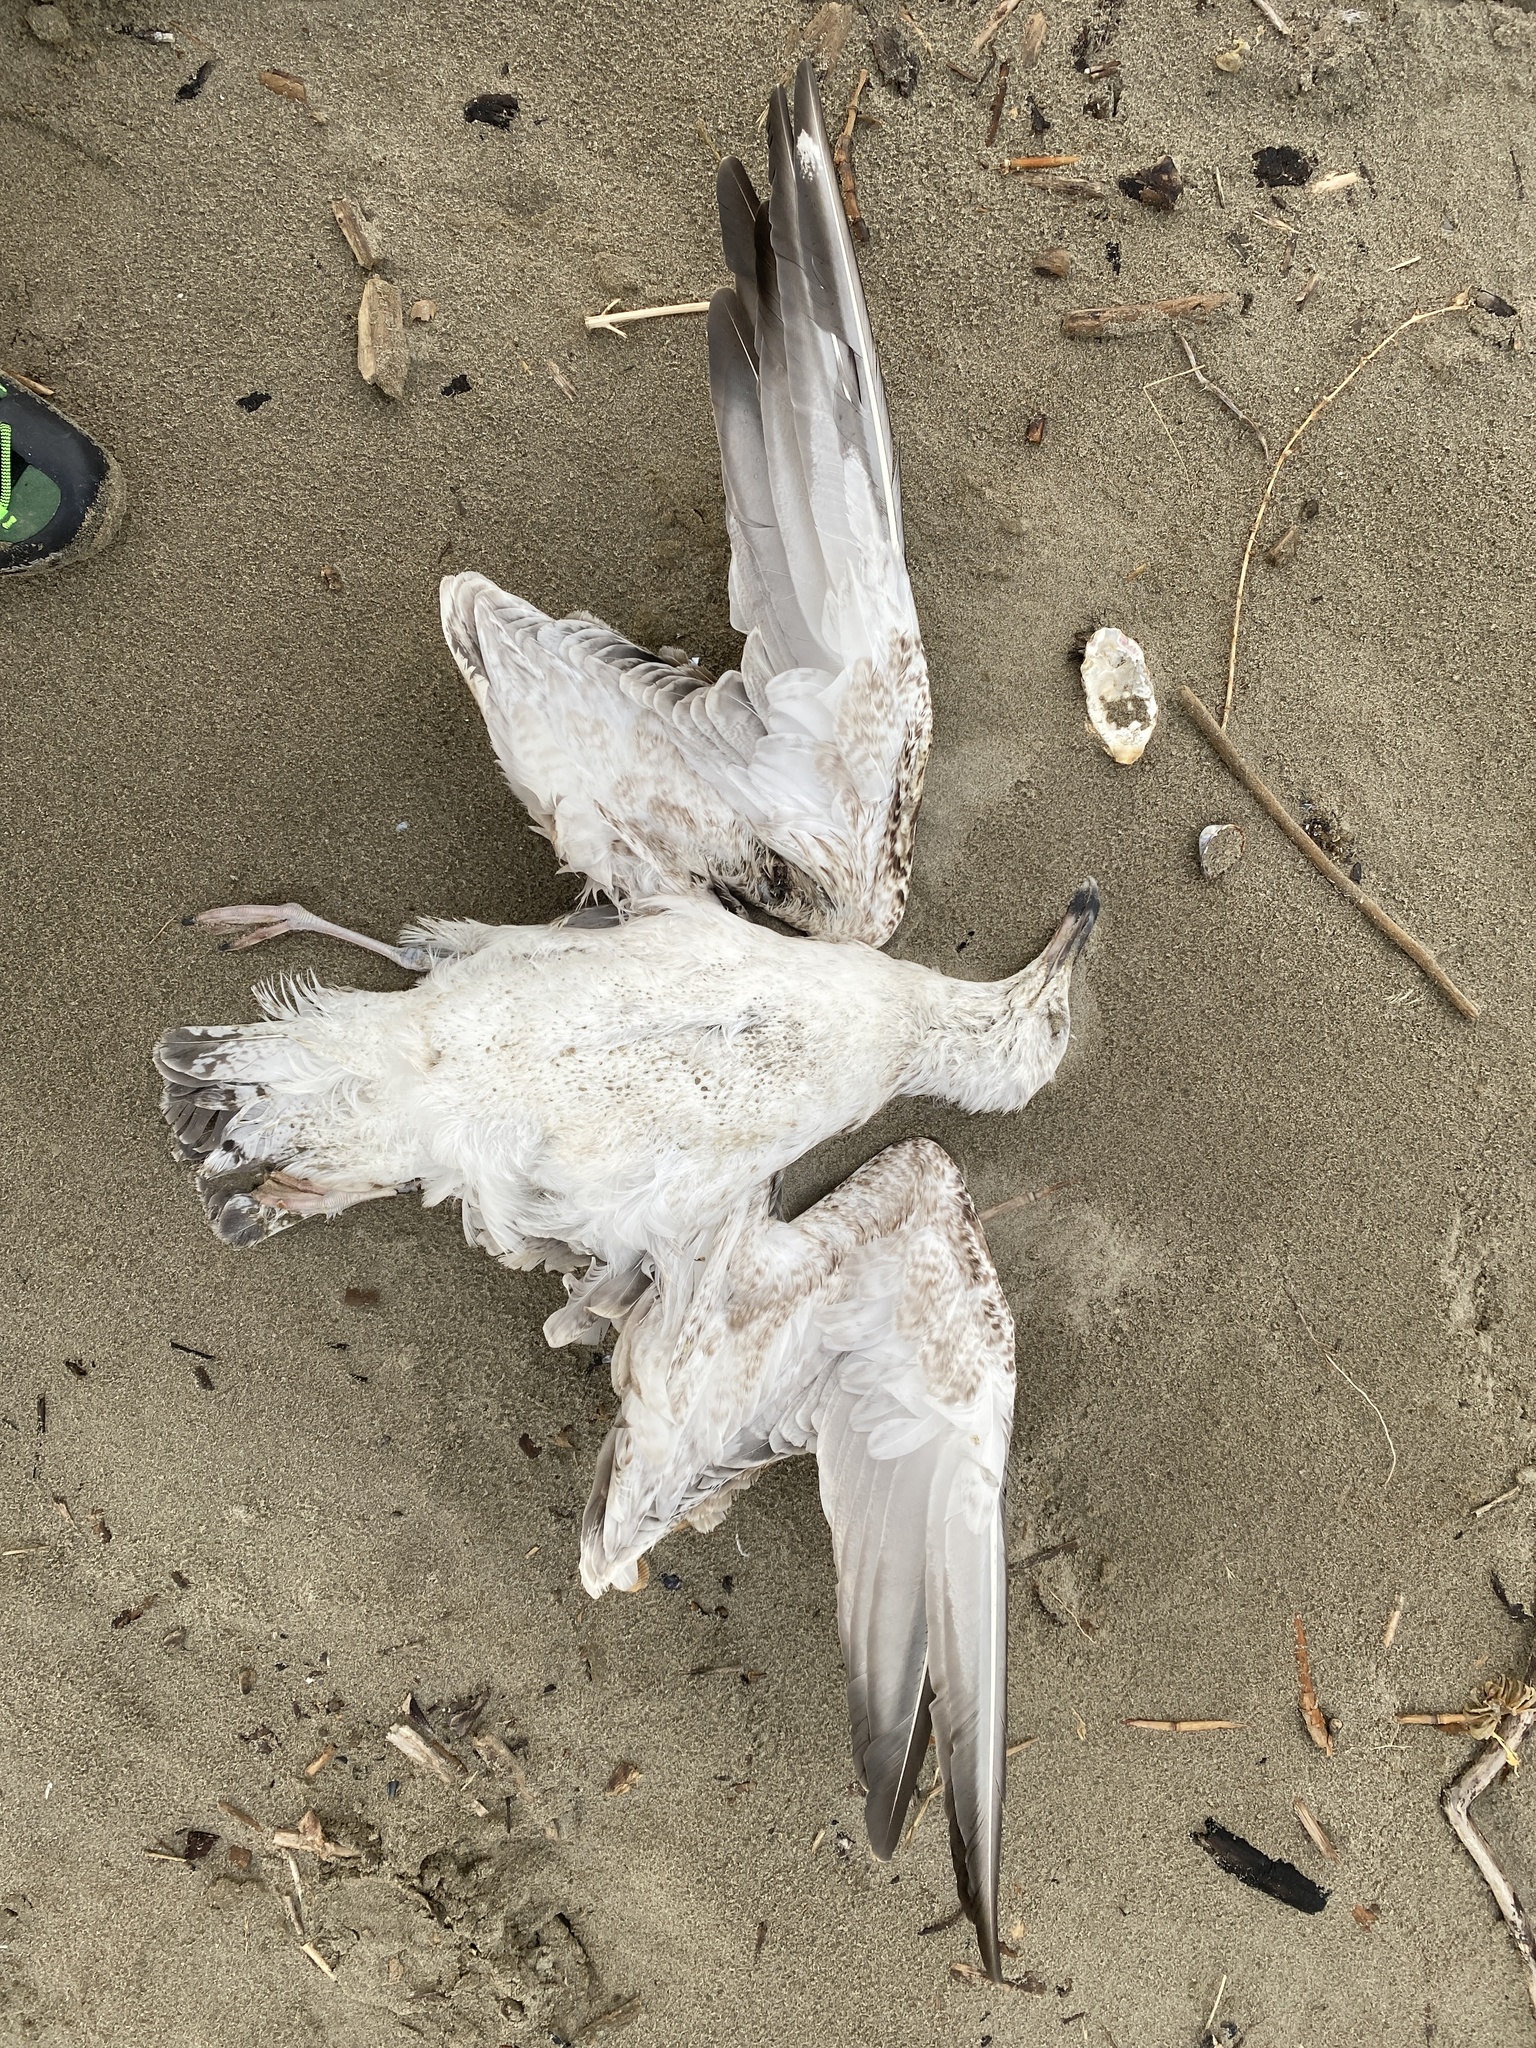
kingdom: Animalia
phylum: Chordata
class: Aves
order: Charadriiformes
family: Laridae
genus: Larus
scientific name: Larus cachinnans
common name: Caspian gull
